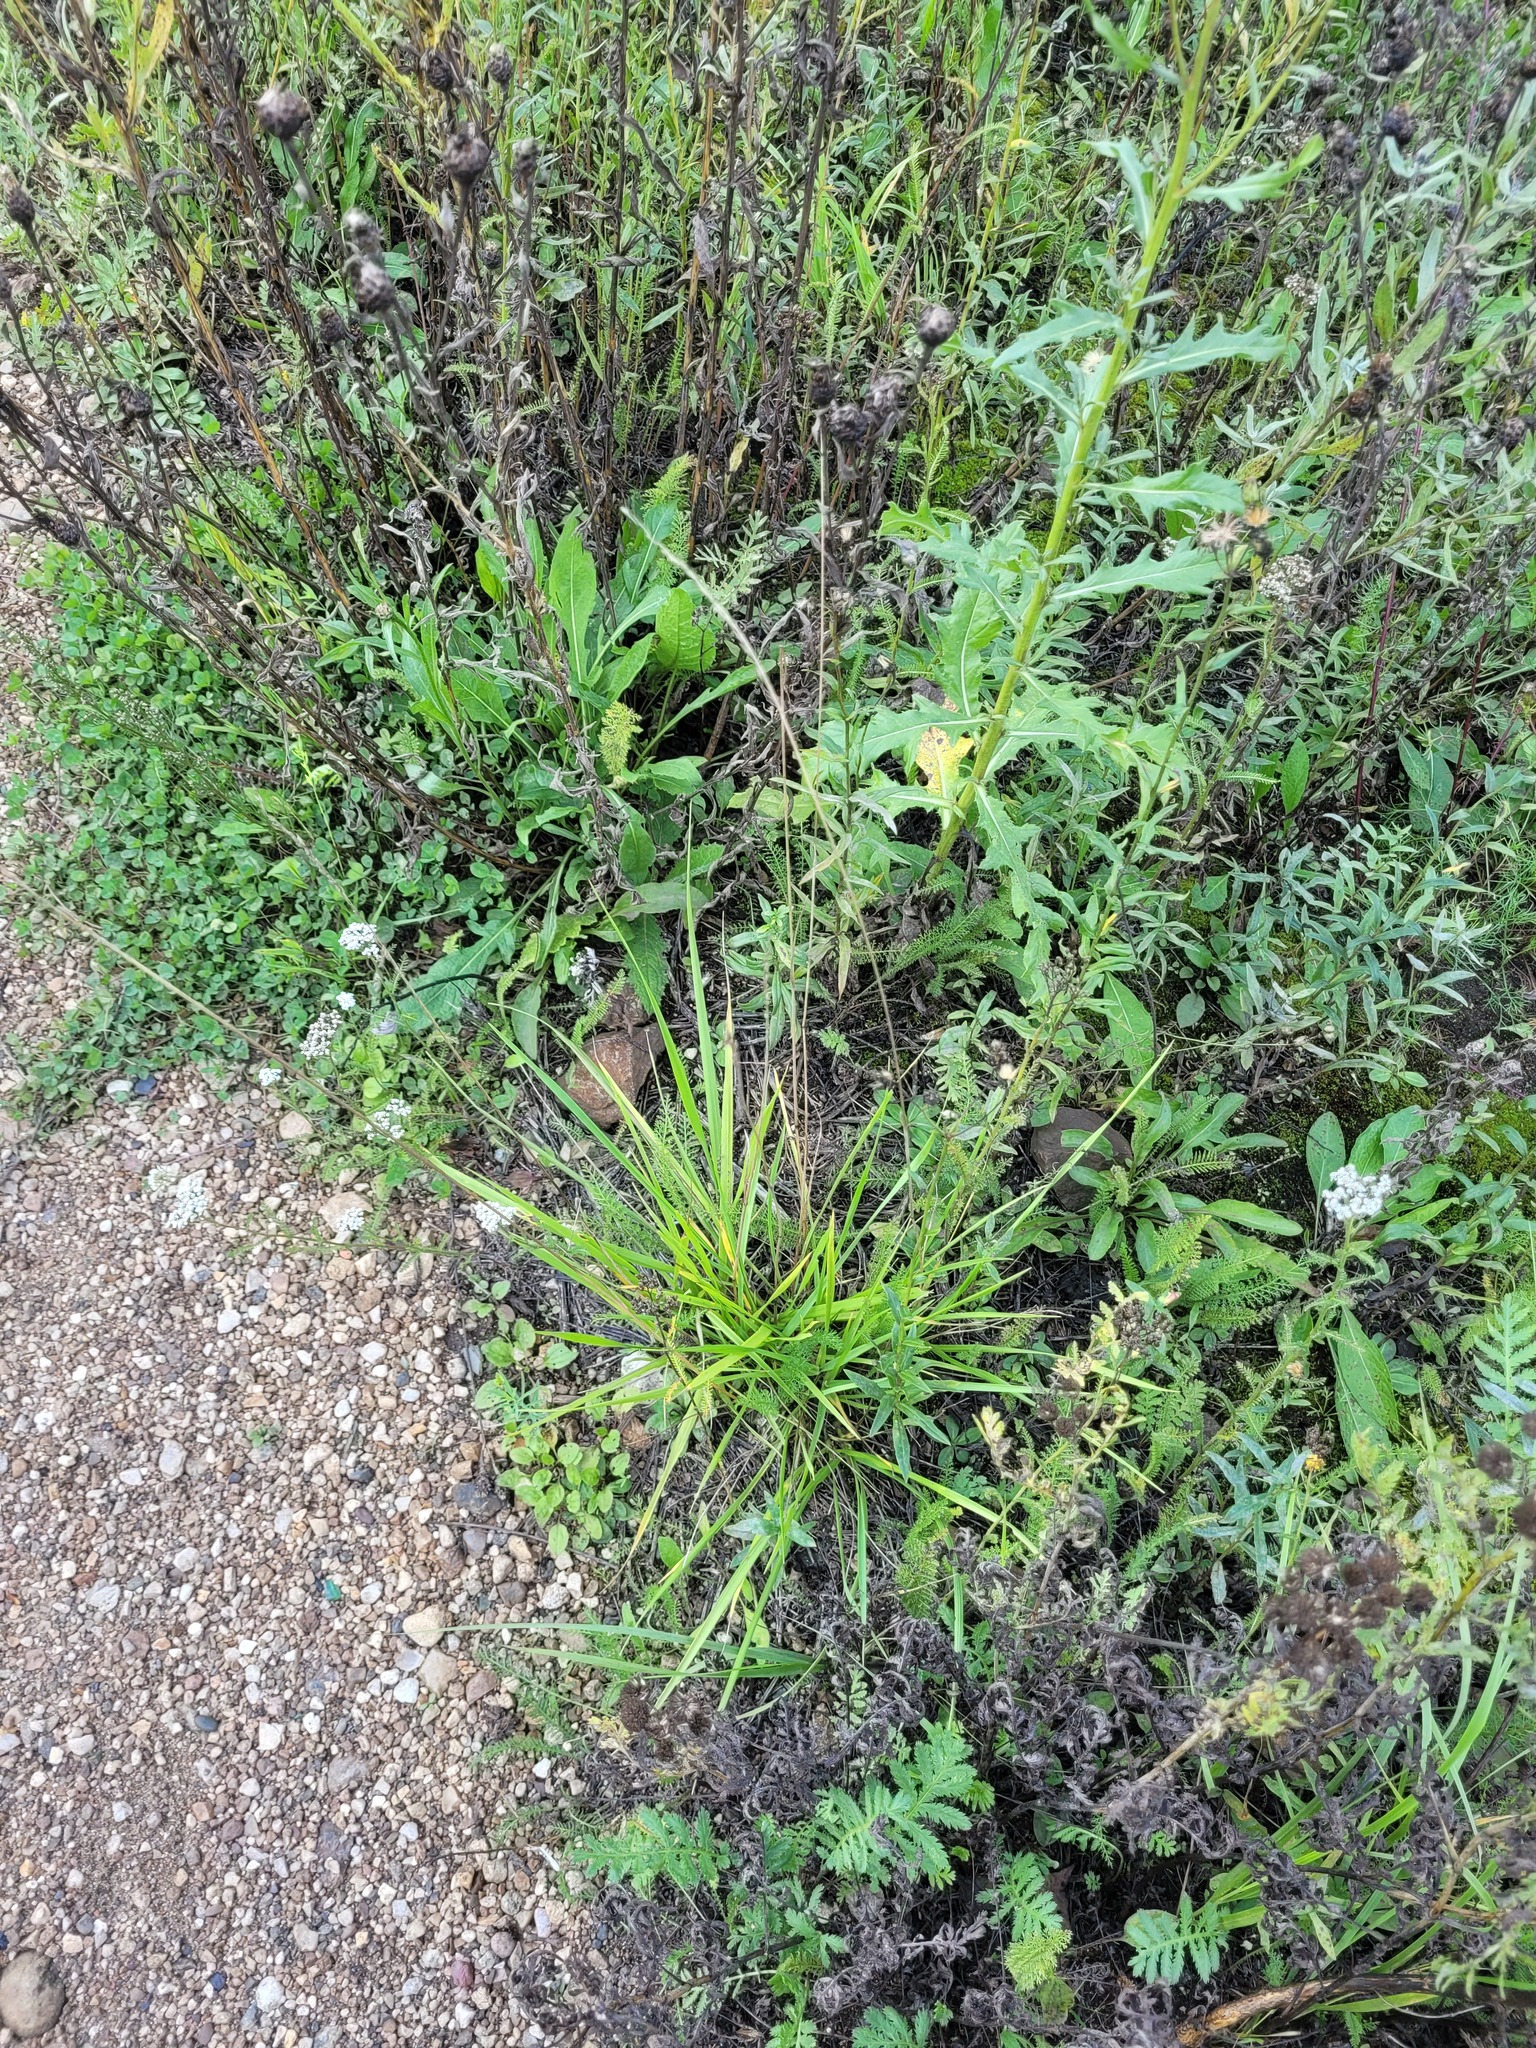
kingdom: Plantae
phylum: Tracheophyta
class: Liliopsida
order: Poales
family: Poaceae
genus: Lolium
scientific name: Lolium pratense
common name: Dover grass
